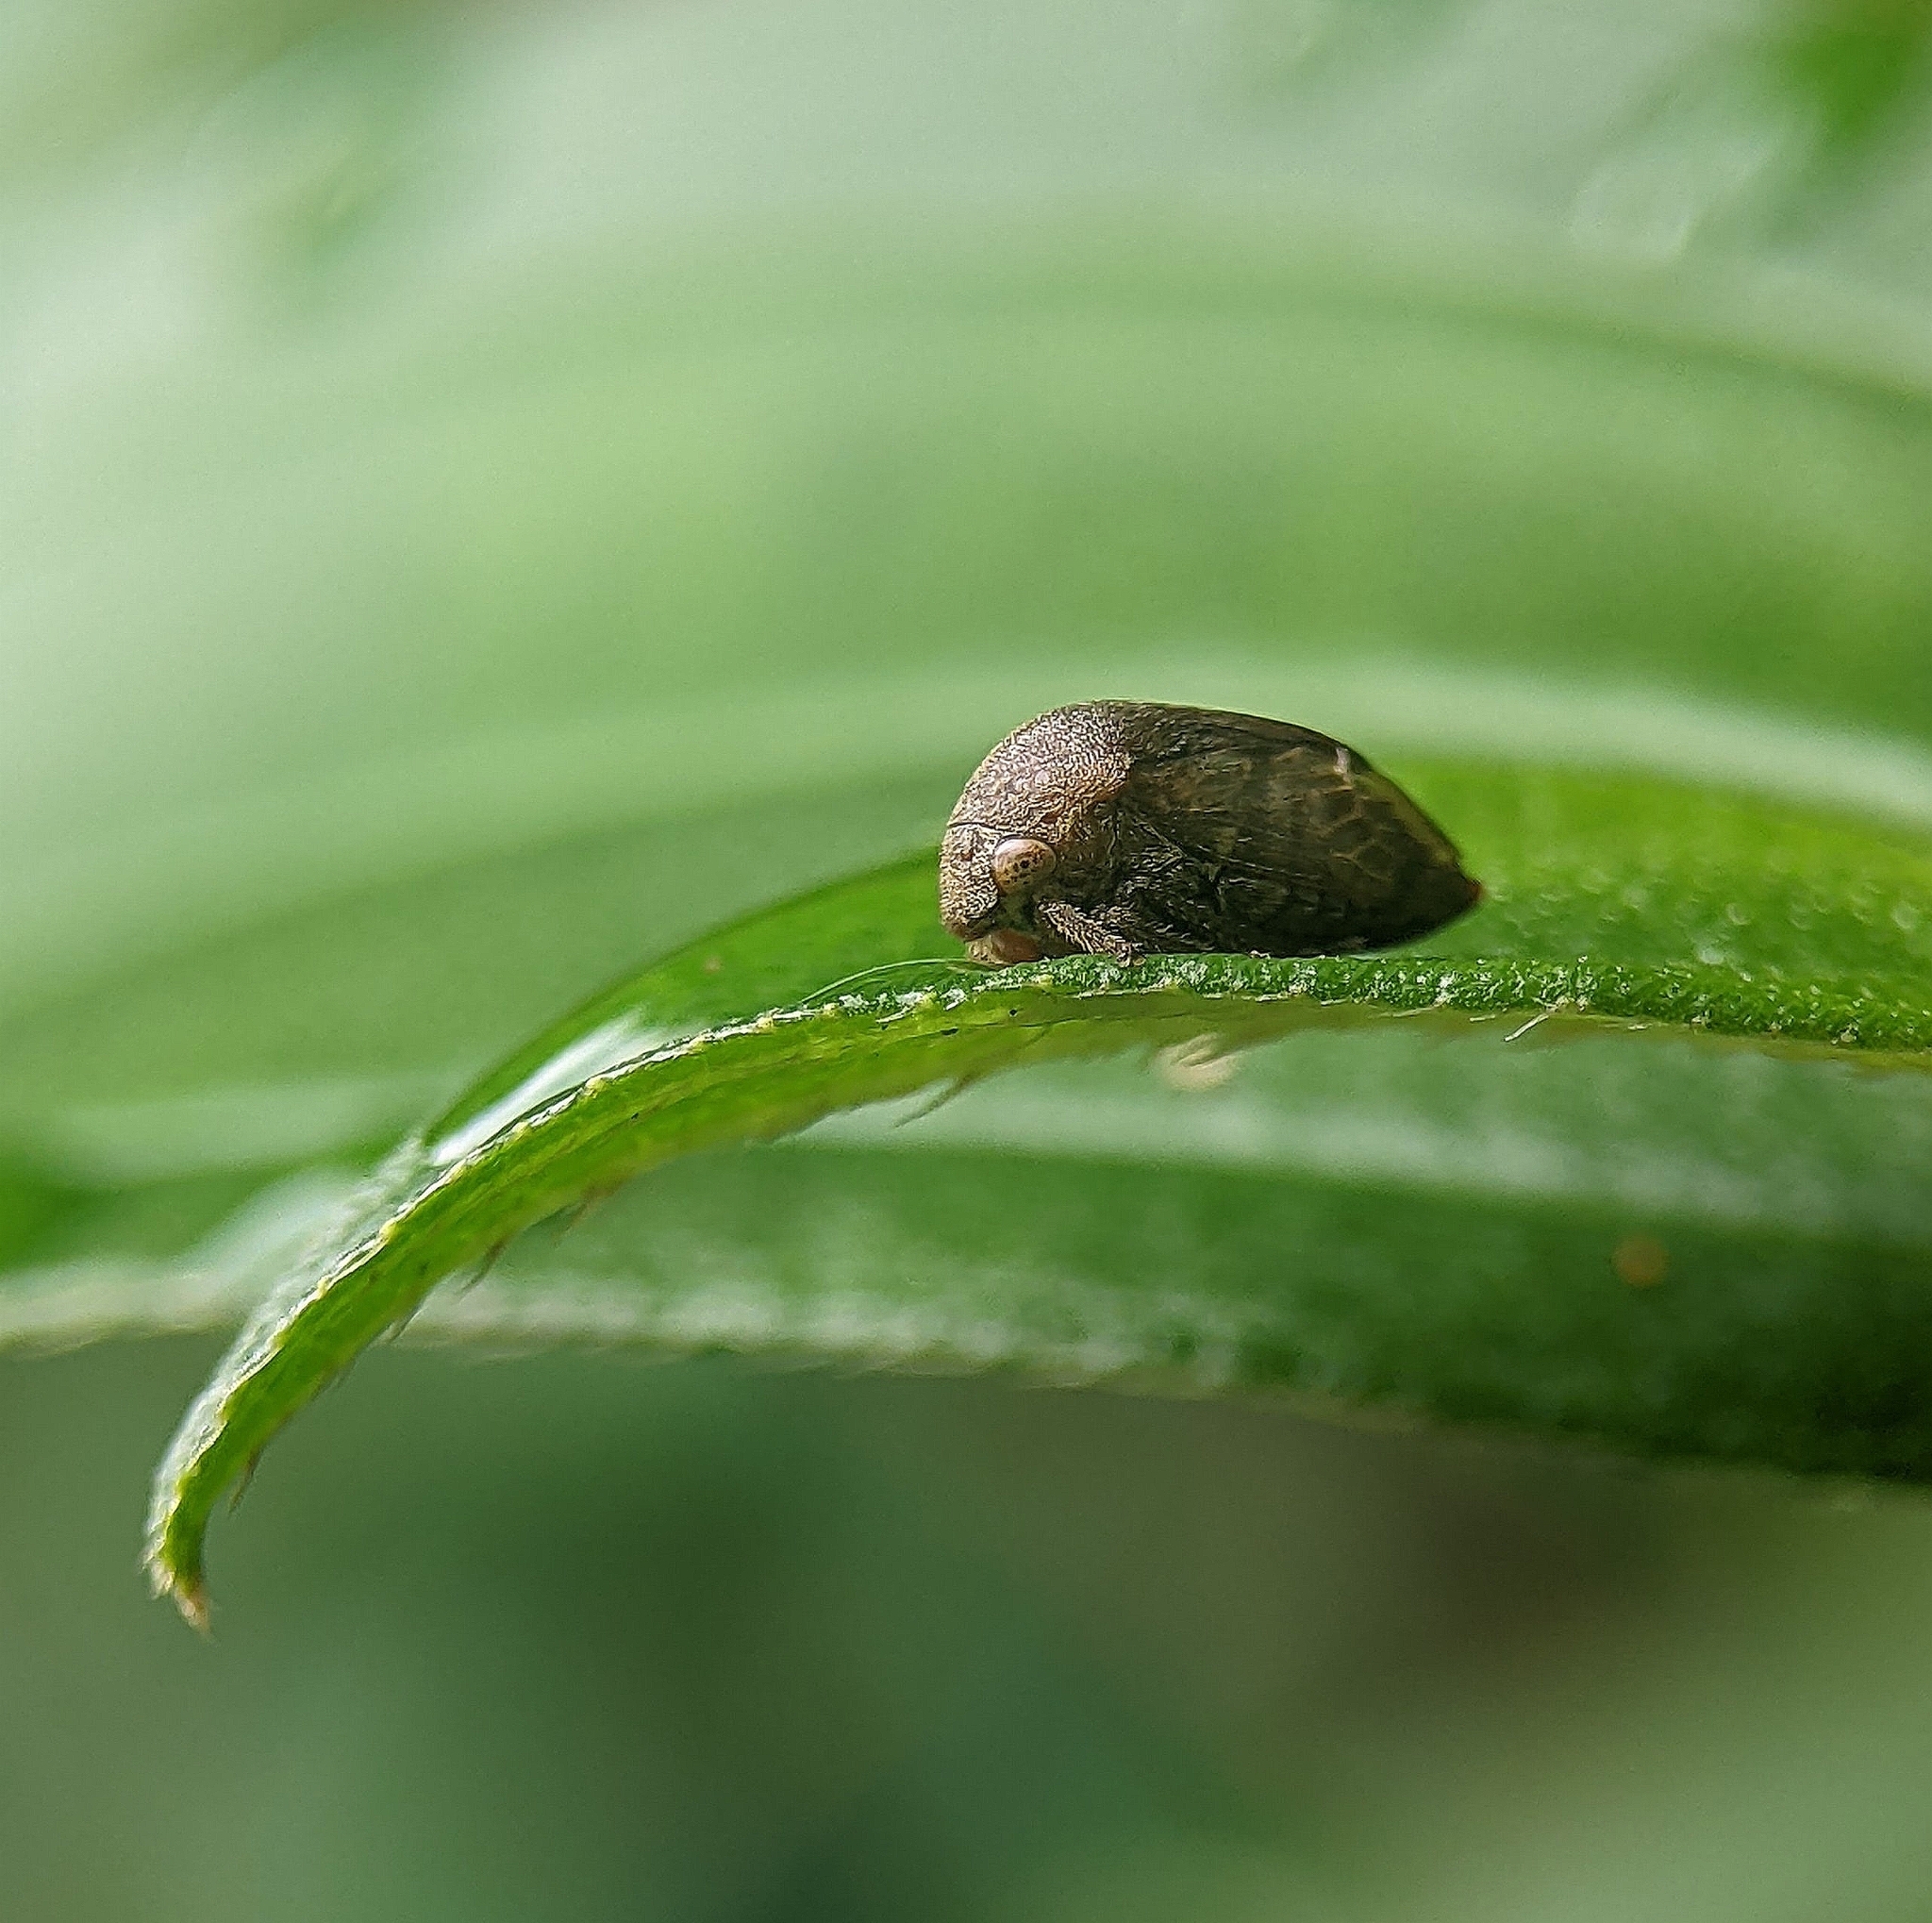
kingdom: Animalia
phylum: Arthropoda
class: Insecta
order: Hemiptera
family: Membracidae
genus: Gargara
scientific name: Gargara projecta
